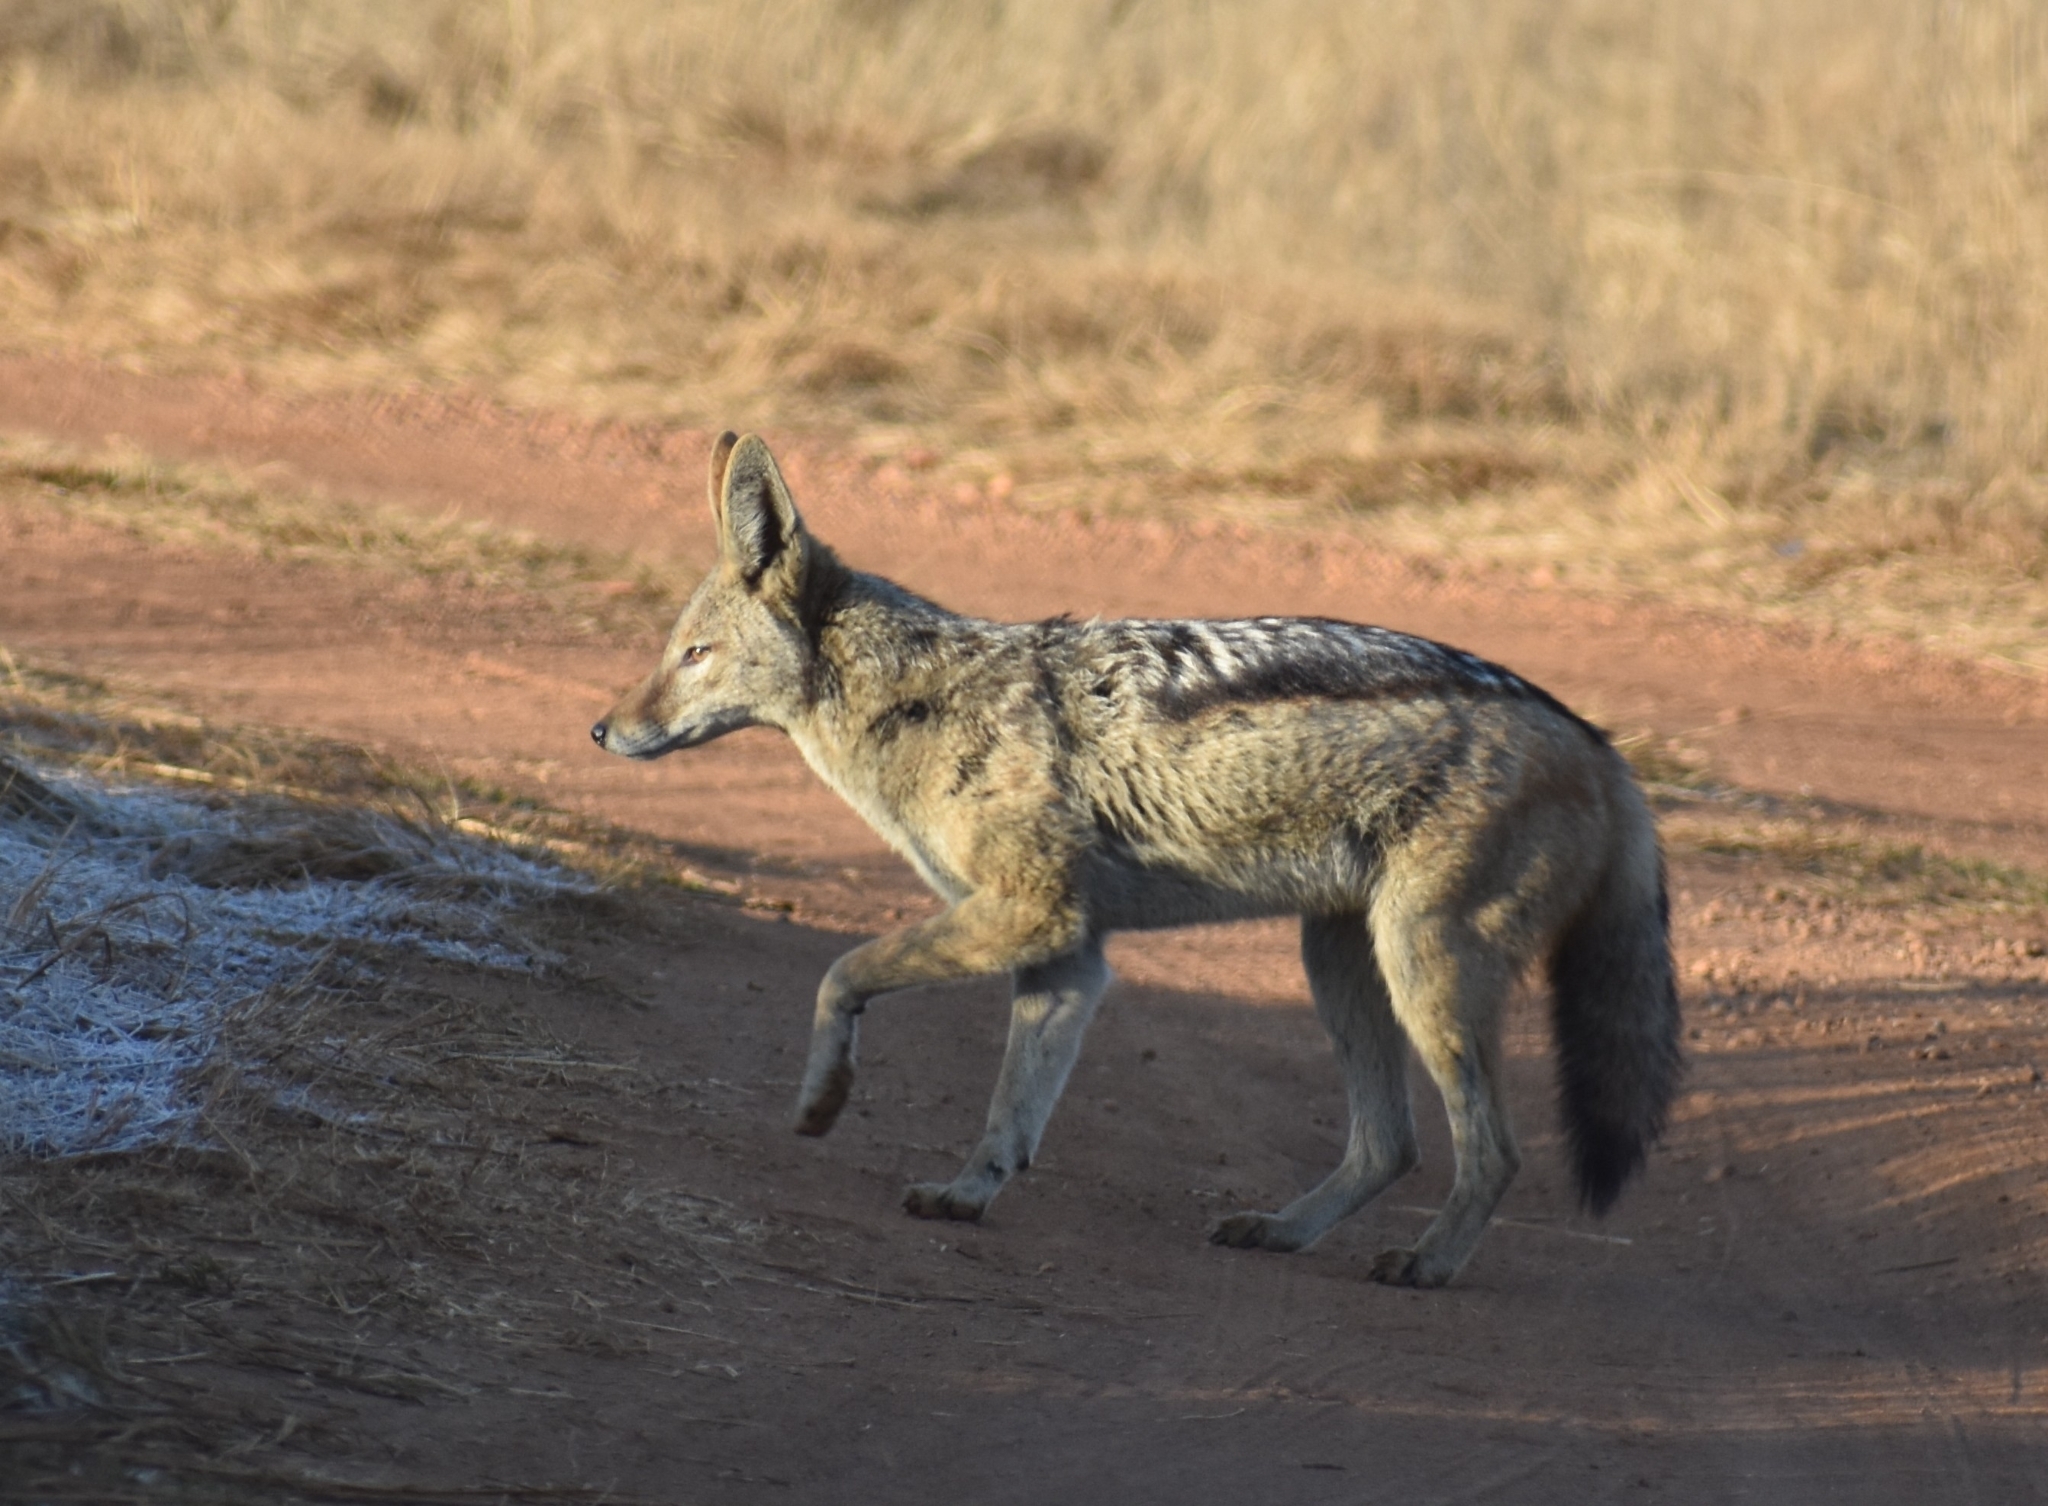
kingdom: Animalia
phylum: Chordata
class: Mammalia
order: Carnivora
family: Canidae
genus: Lupulella
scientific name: Lupulella
